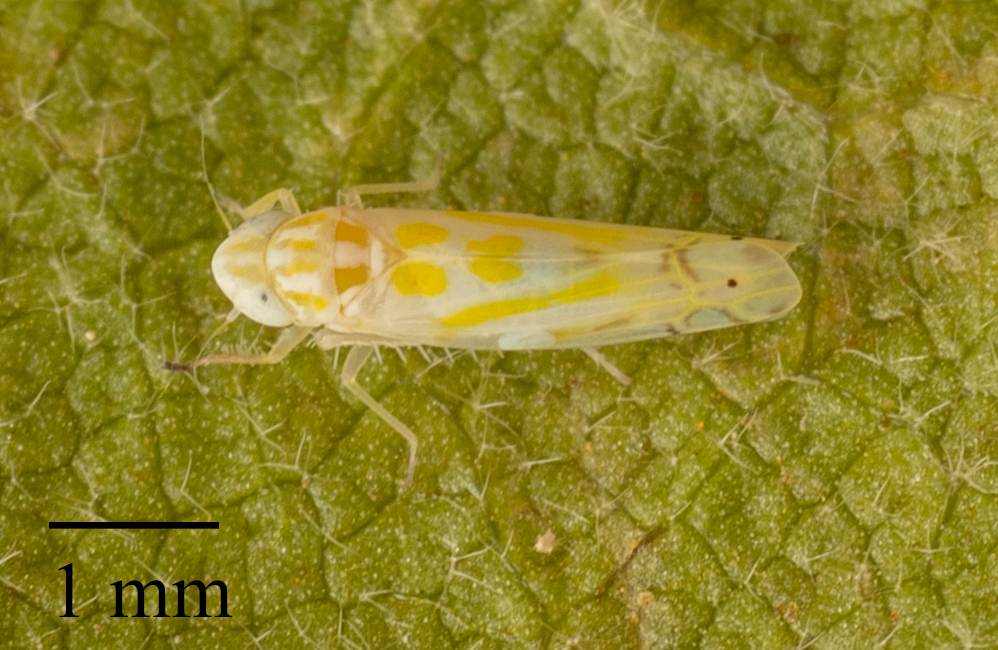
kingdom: Animalia
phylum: Arthropoda
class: Insecta
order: Hemiptera
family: Cicadellidae
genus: Alconeura
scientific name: Alconeura quadrimaculata
